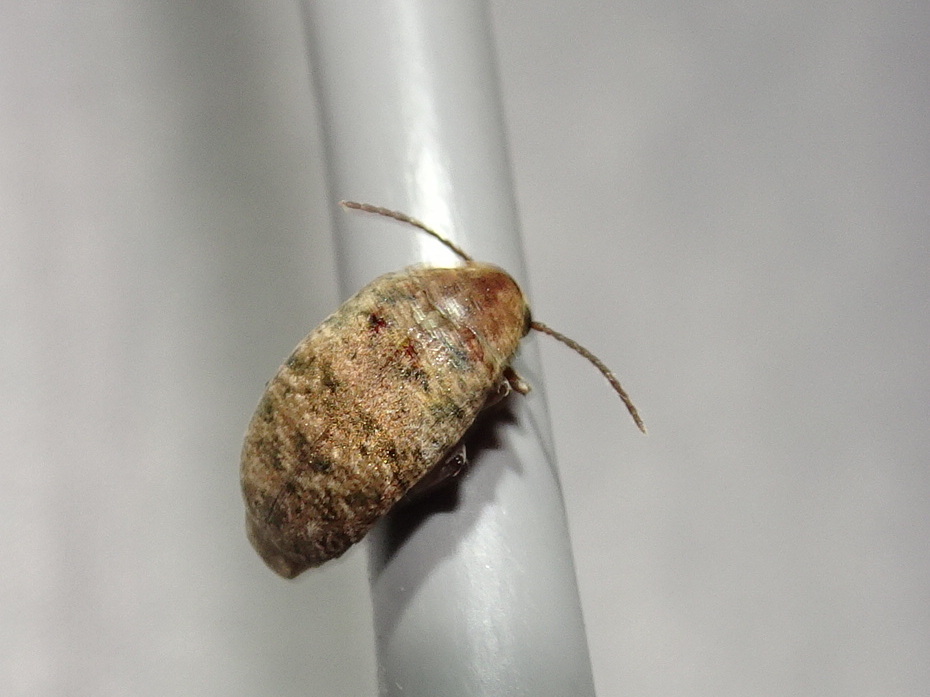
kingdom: Animalia
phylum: Arthropoda
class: Insecta
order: Coleoptera
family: Chrysomelidae
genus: Amblycerus
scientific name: Amblycerus robiniae
